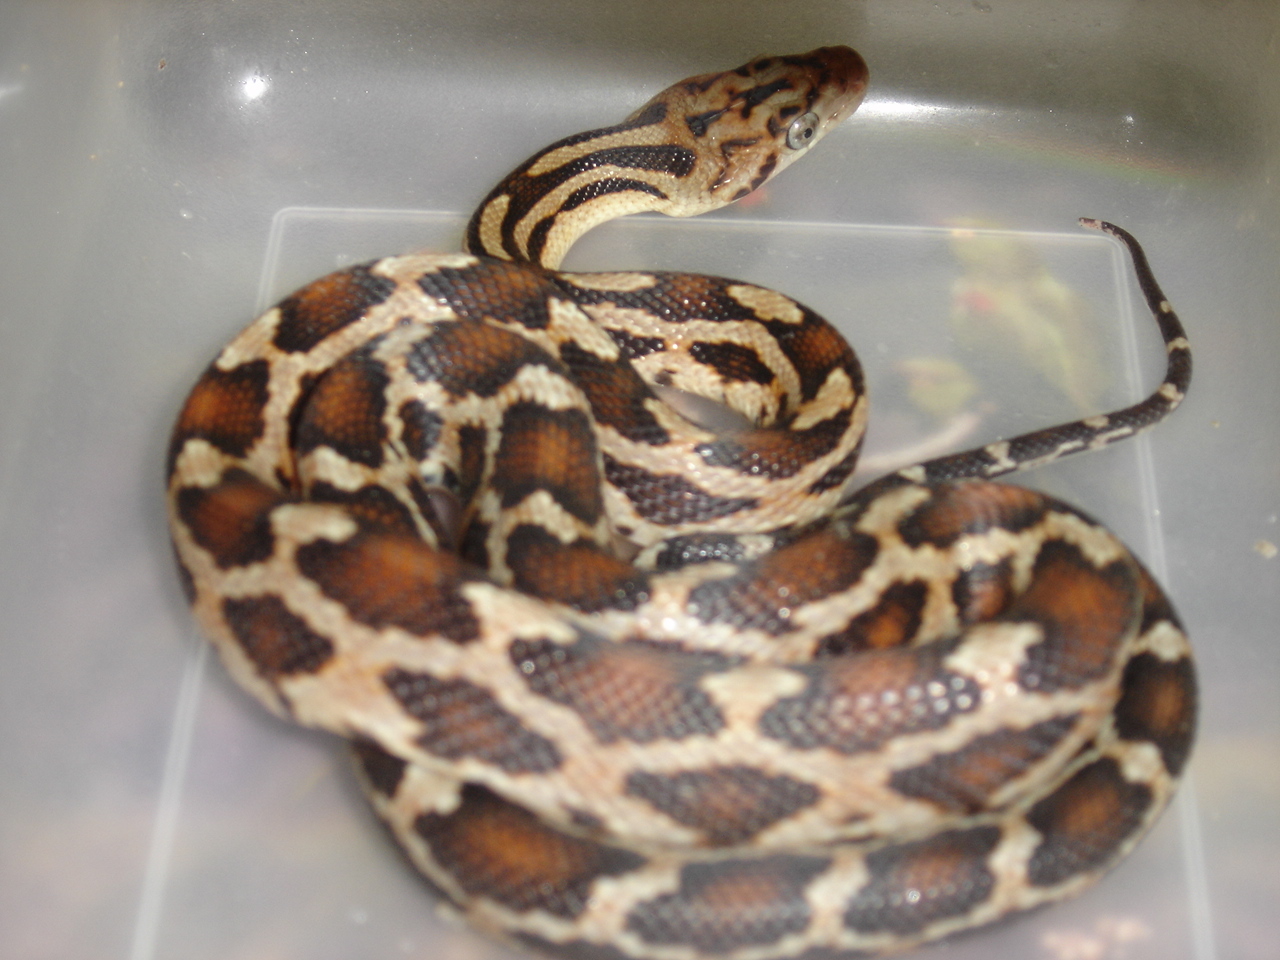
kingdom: Animalia
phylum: Chordata
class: Squamata
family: Colubridae
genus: Pseudelaphe
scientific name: Pseudelaphe phaescens
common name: Yucatan rat snake
